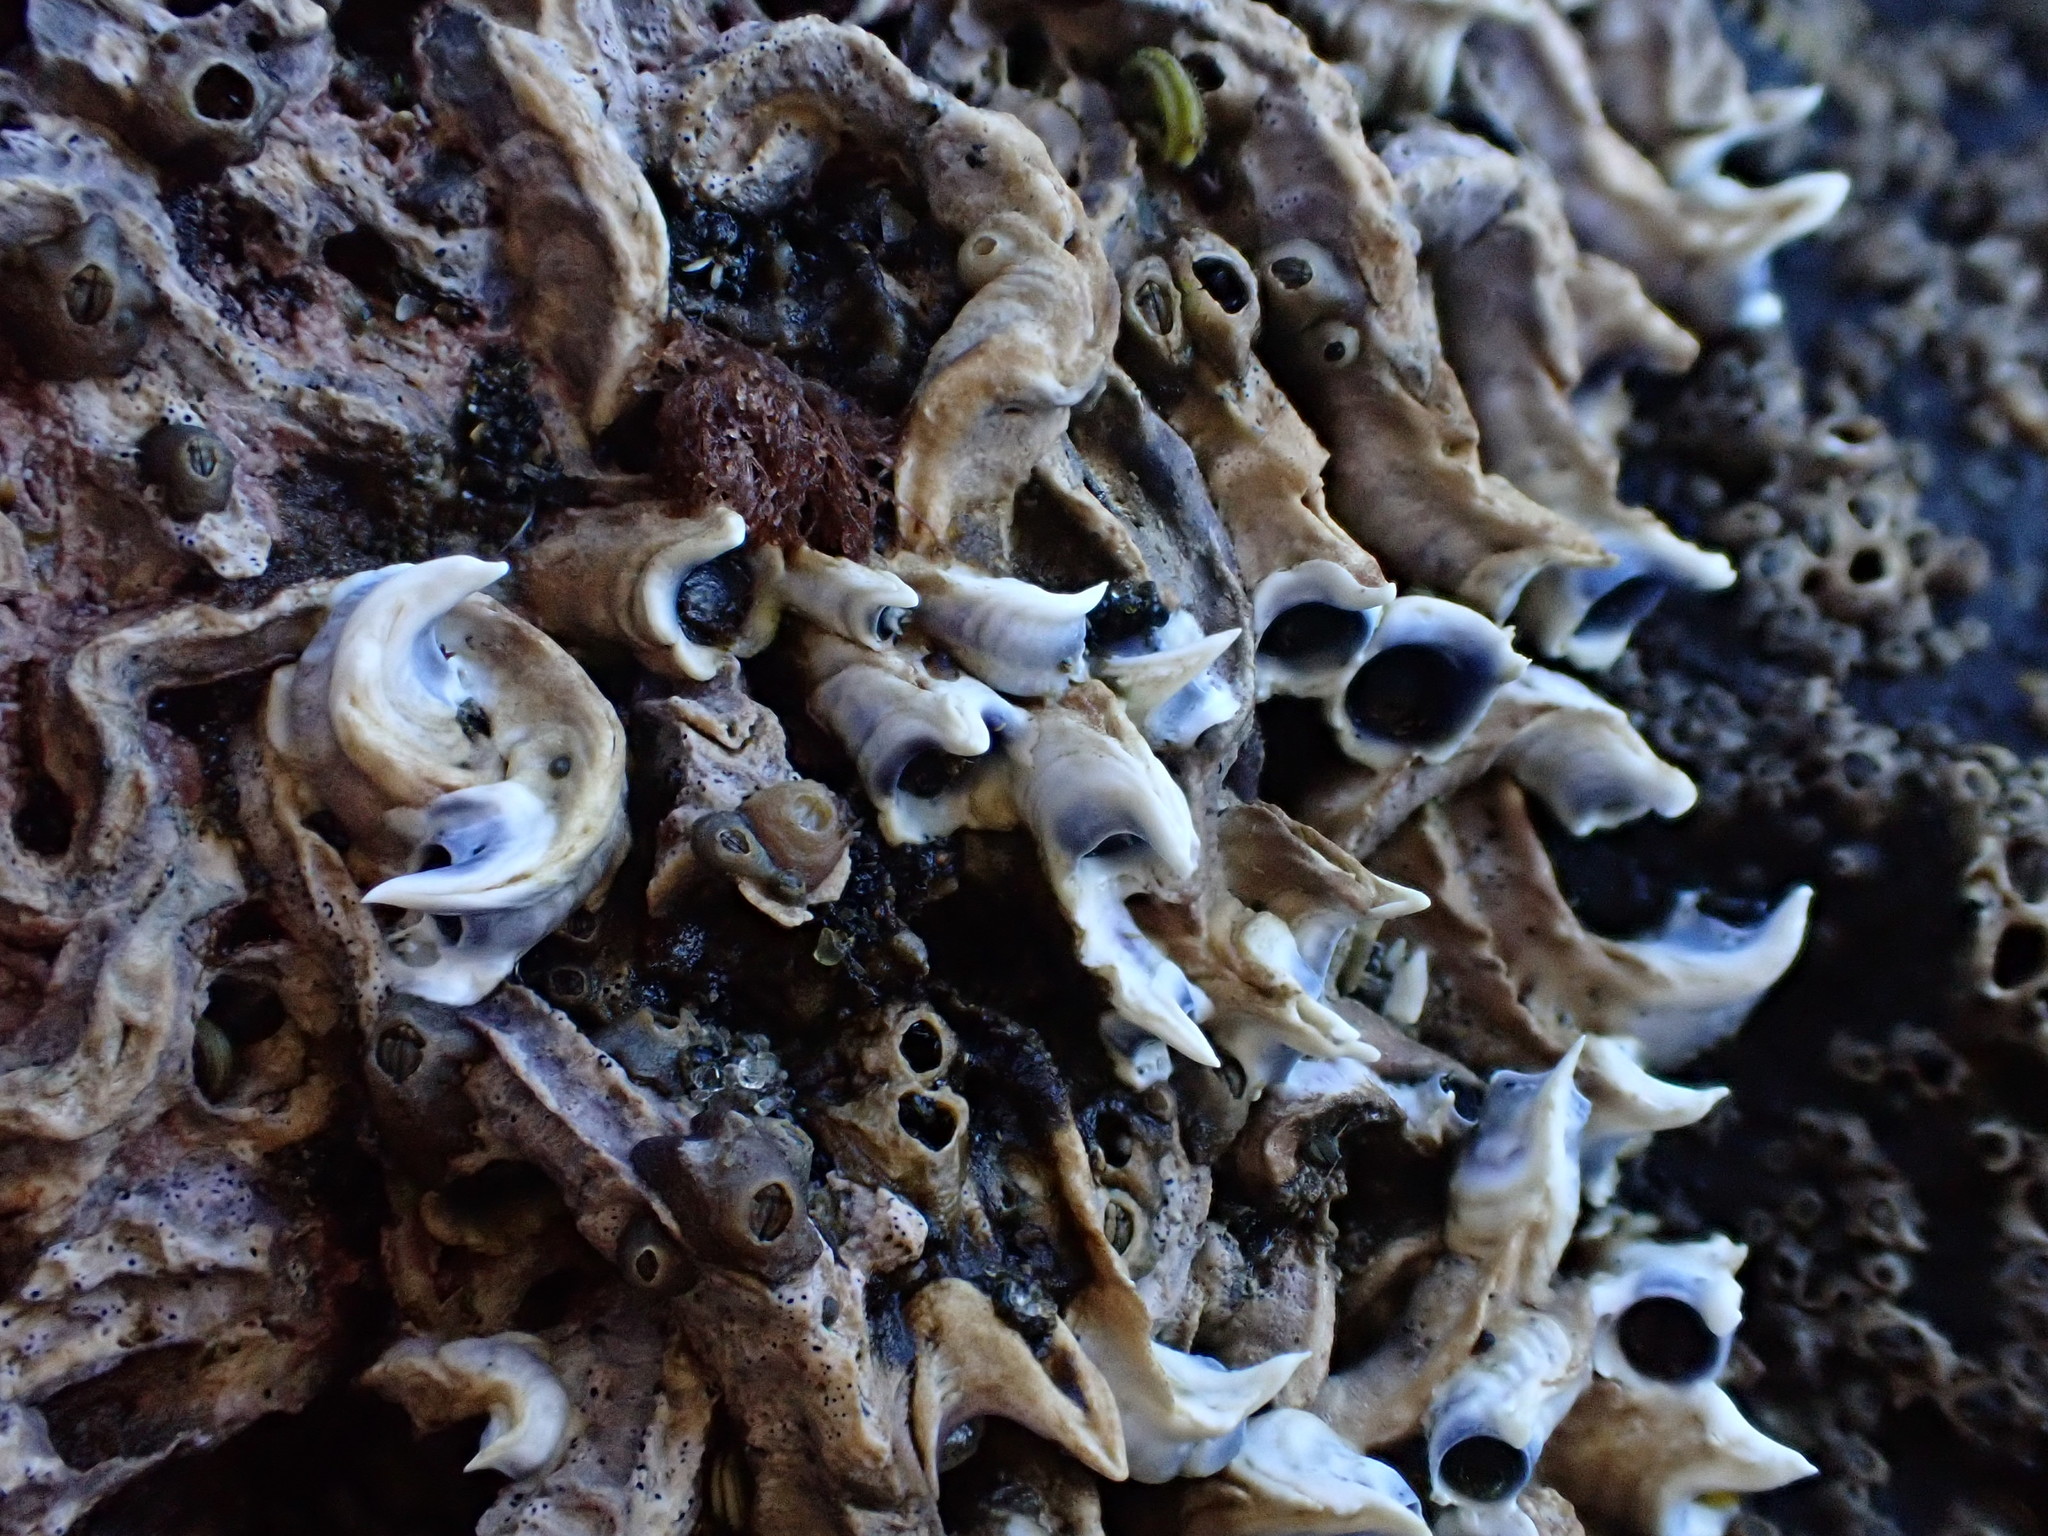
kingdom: Animalia
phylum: Annelida
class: Polychaeta
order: Sabellida
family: Serpulidae
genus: Spirobranchus
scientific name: Spirobranchus cariniferus
